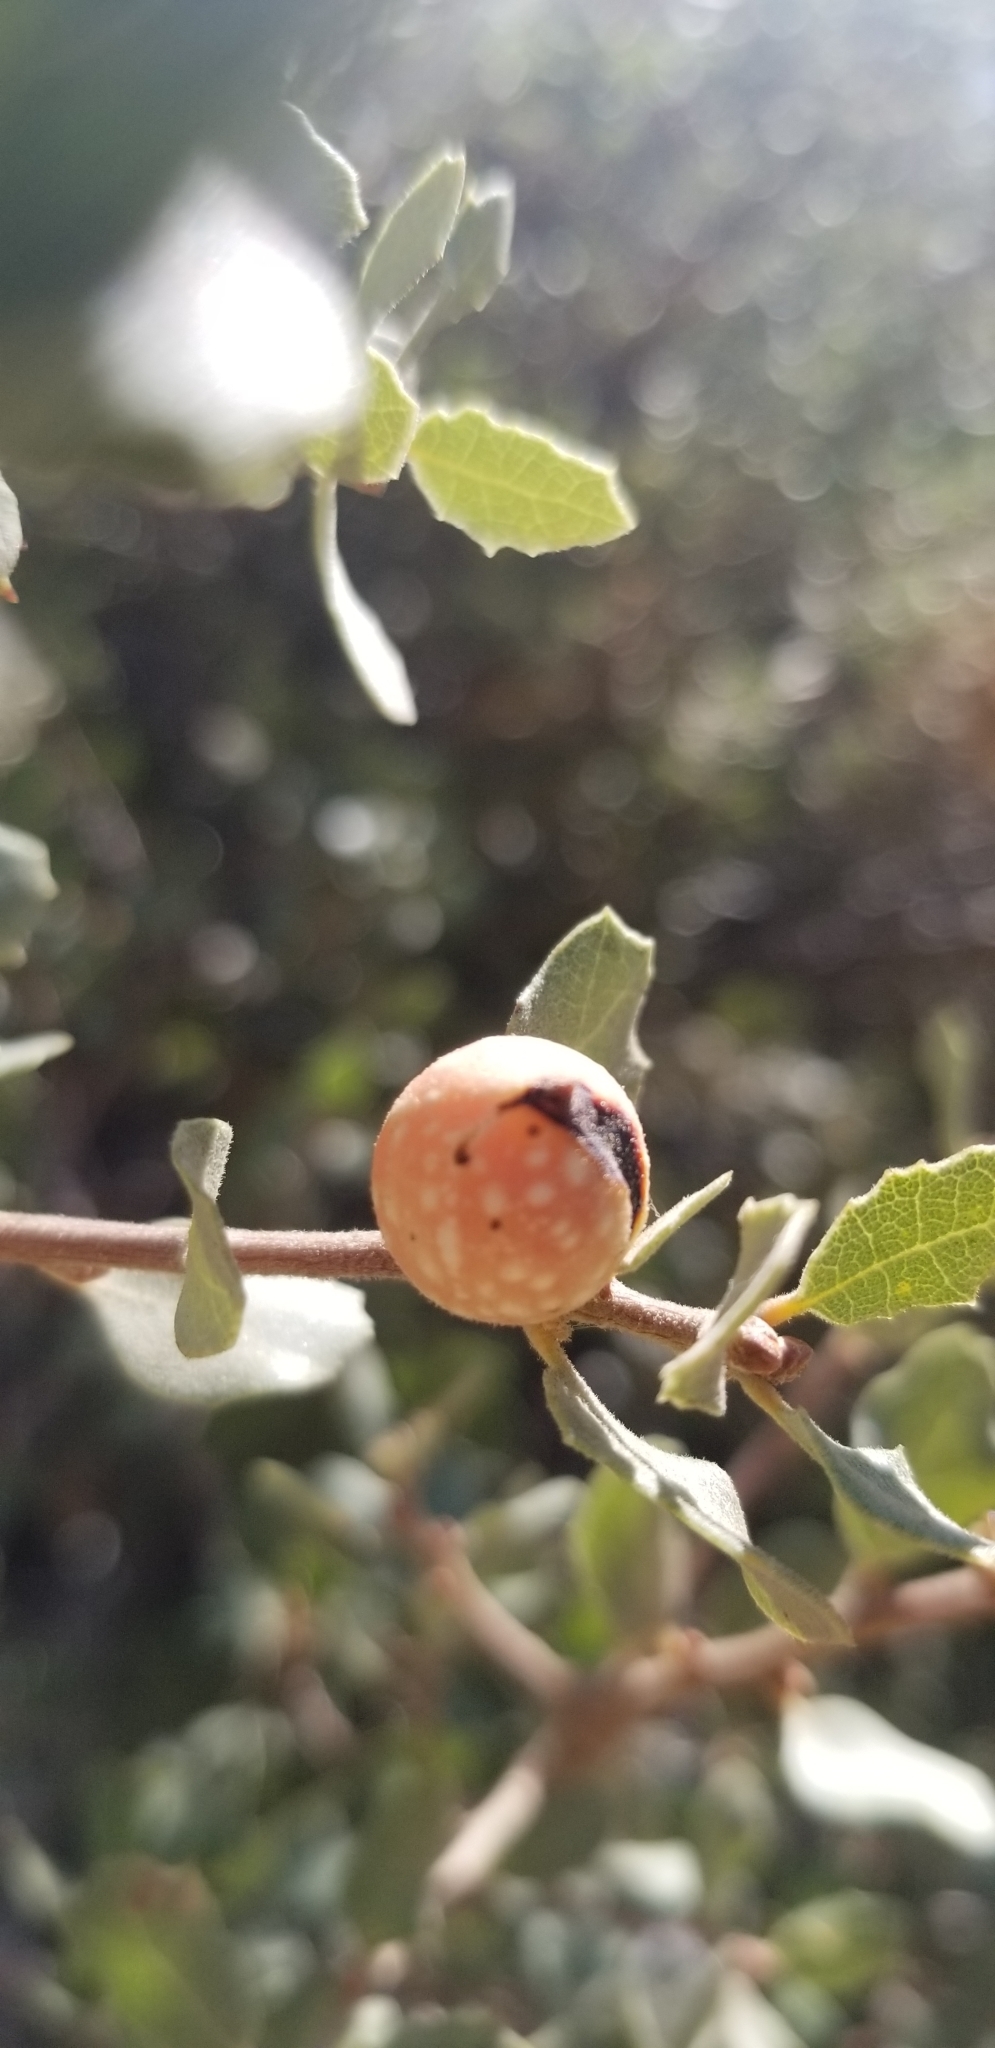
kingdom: Animalia
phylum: Arthropoda
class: Insecta
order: Hymenoptera
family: Cynipidae
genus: Burnettweldia
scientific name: Burnettweldia
